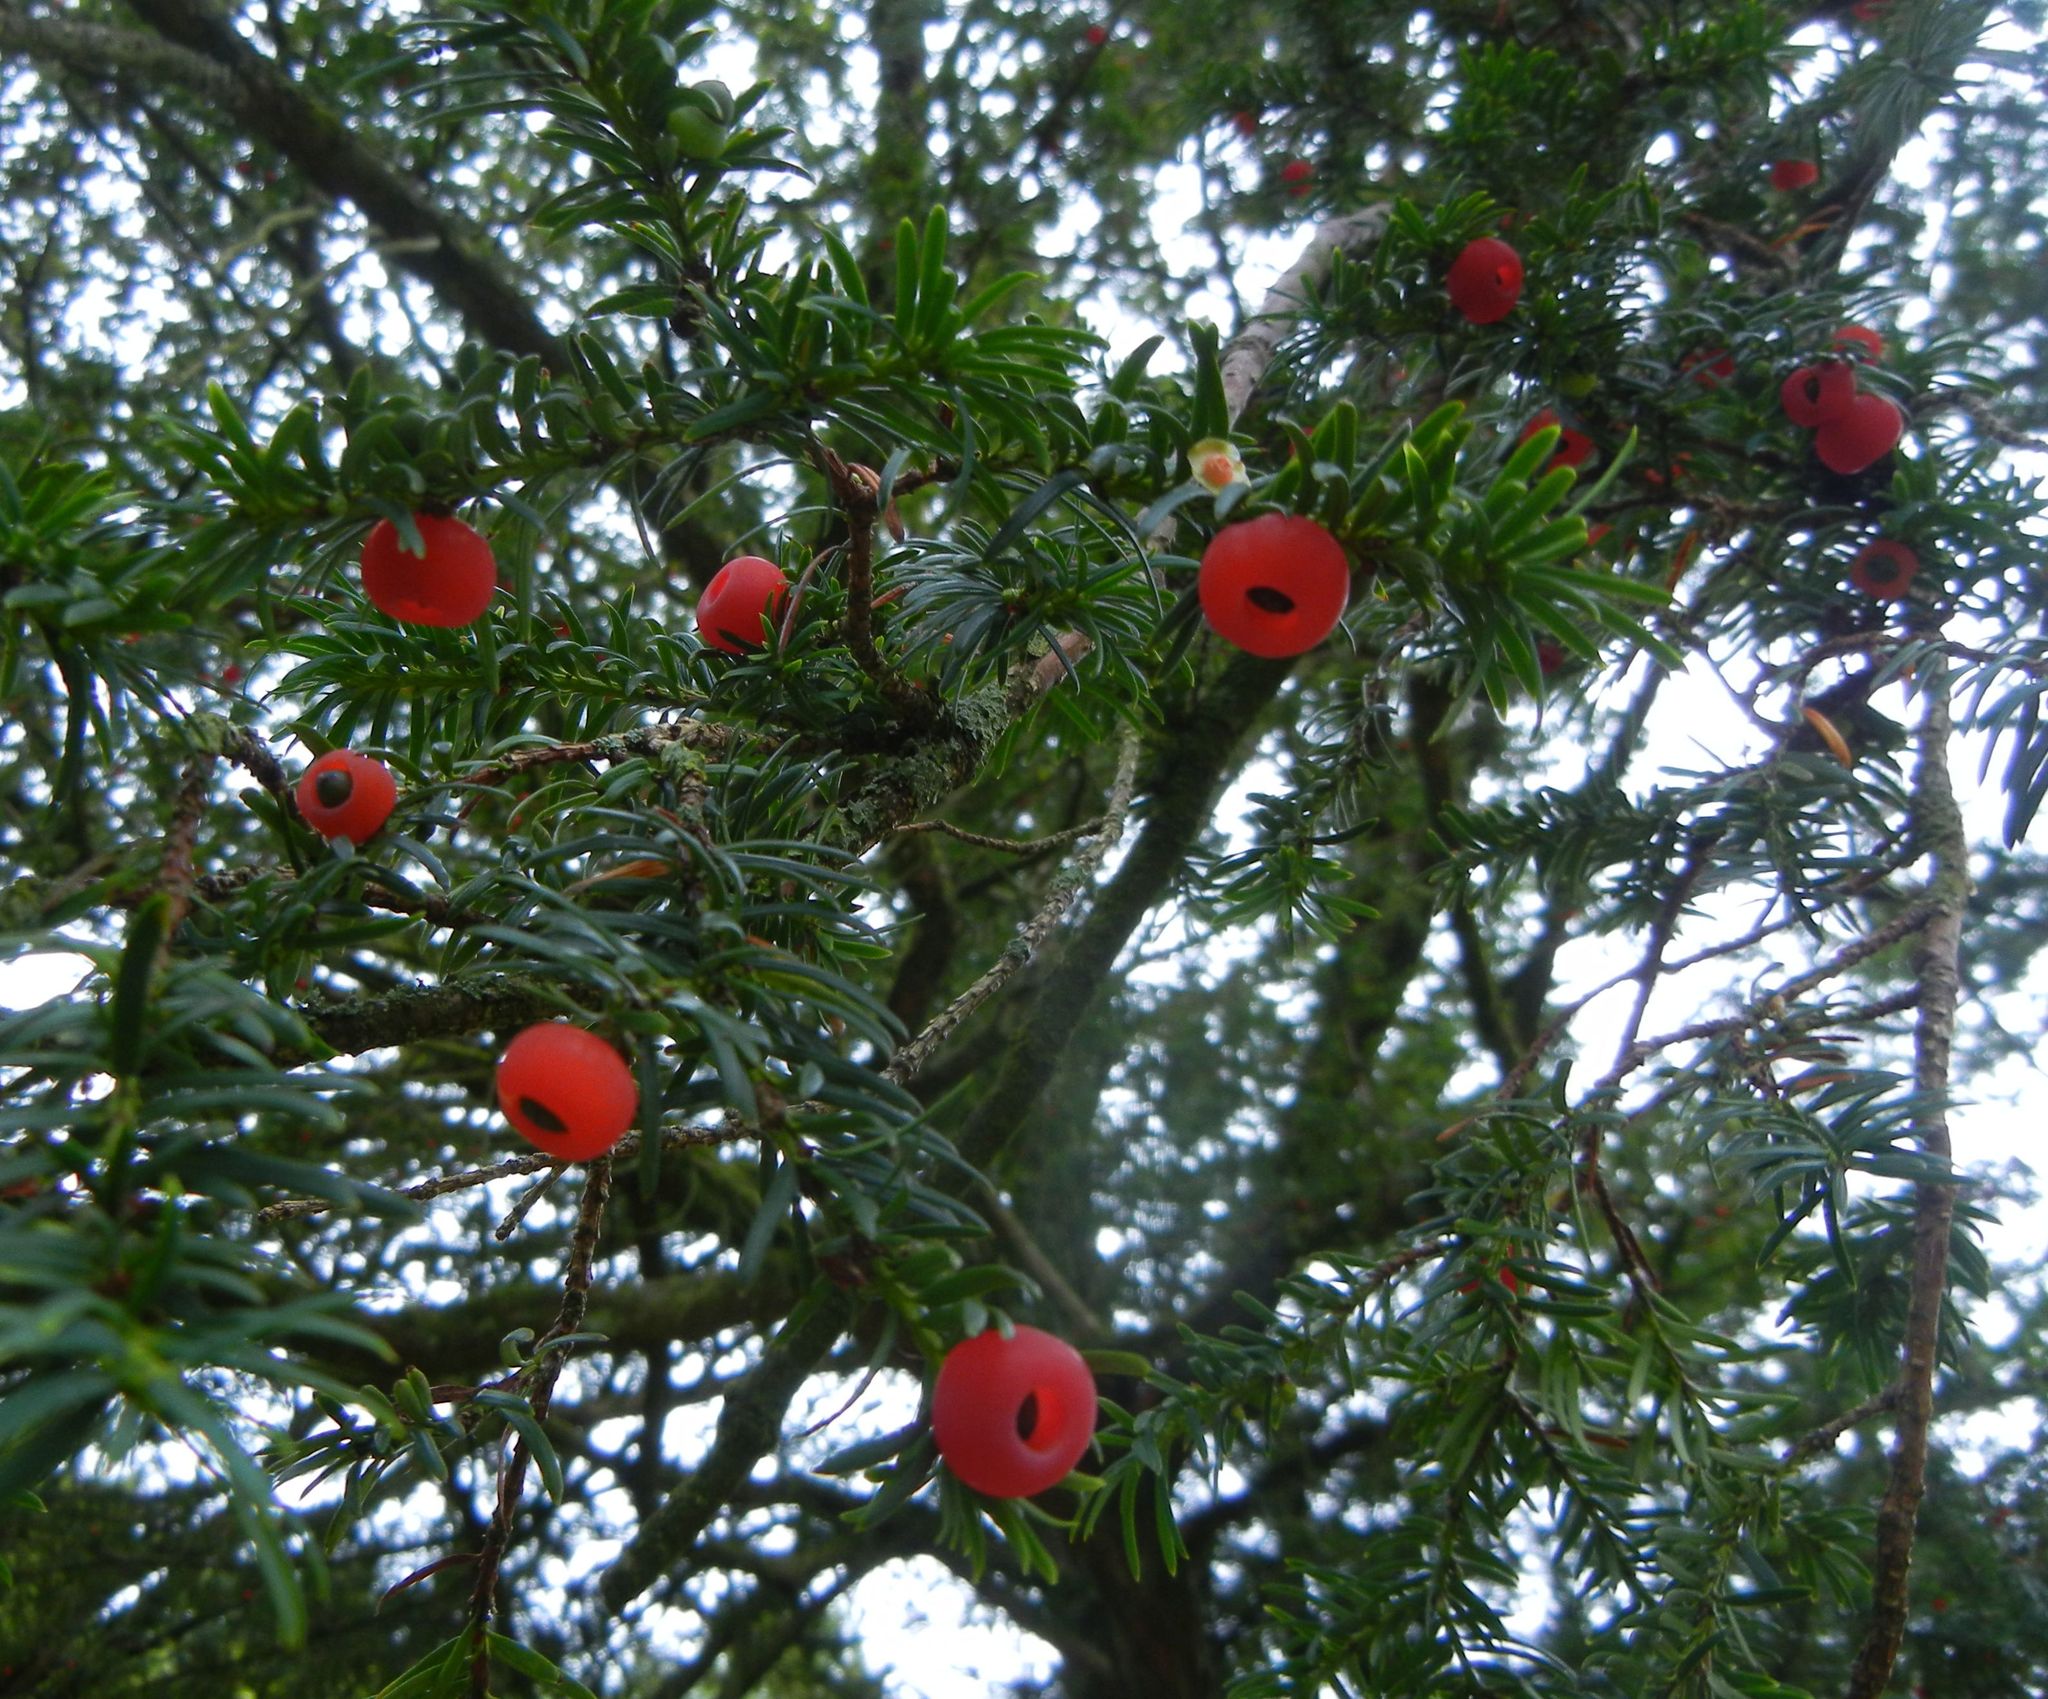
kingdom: Plantae
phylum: Tracheophyta
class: Pinopsida
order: Pinales
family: Taxaceae
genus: Taxus
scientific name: Taxus baccata
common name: Yew
